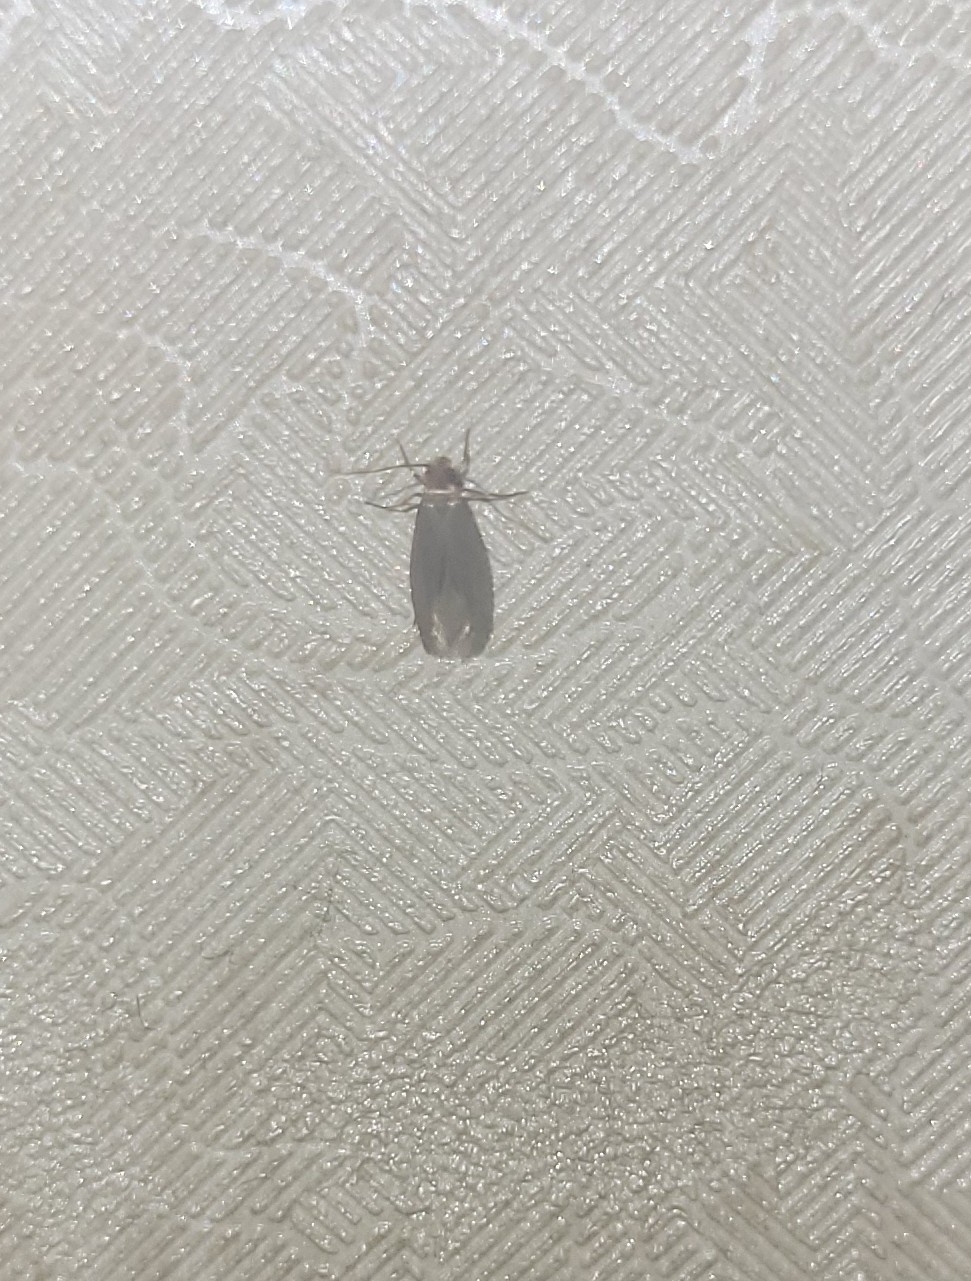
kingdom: Animalia
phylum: Arthropoda
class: Insecta
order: Lepidoptera
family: Tineidae
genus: Tineola
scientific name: Tineola bisselliella
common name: Webbing clothes moth
